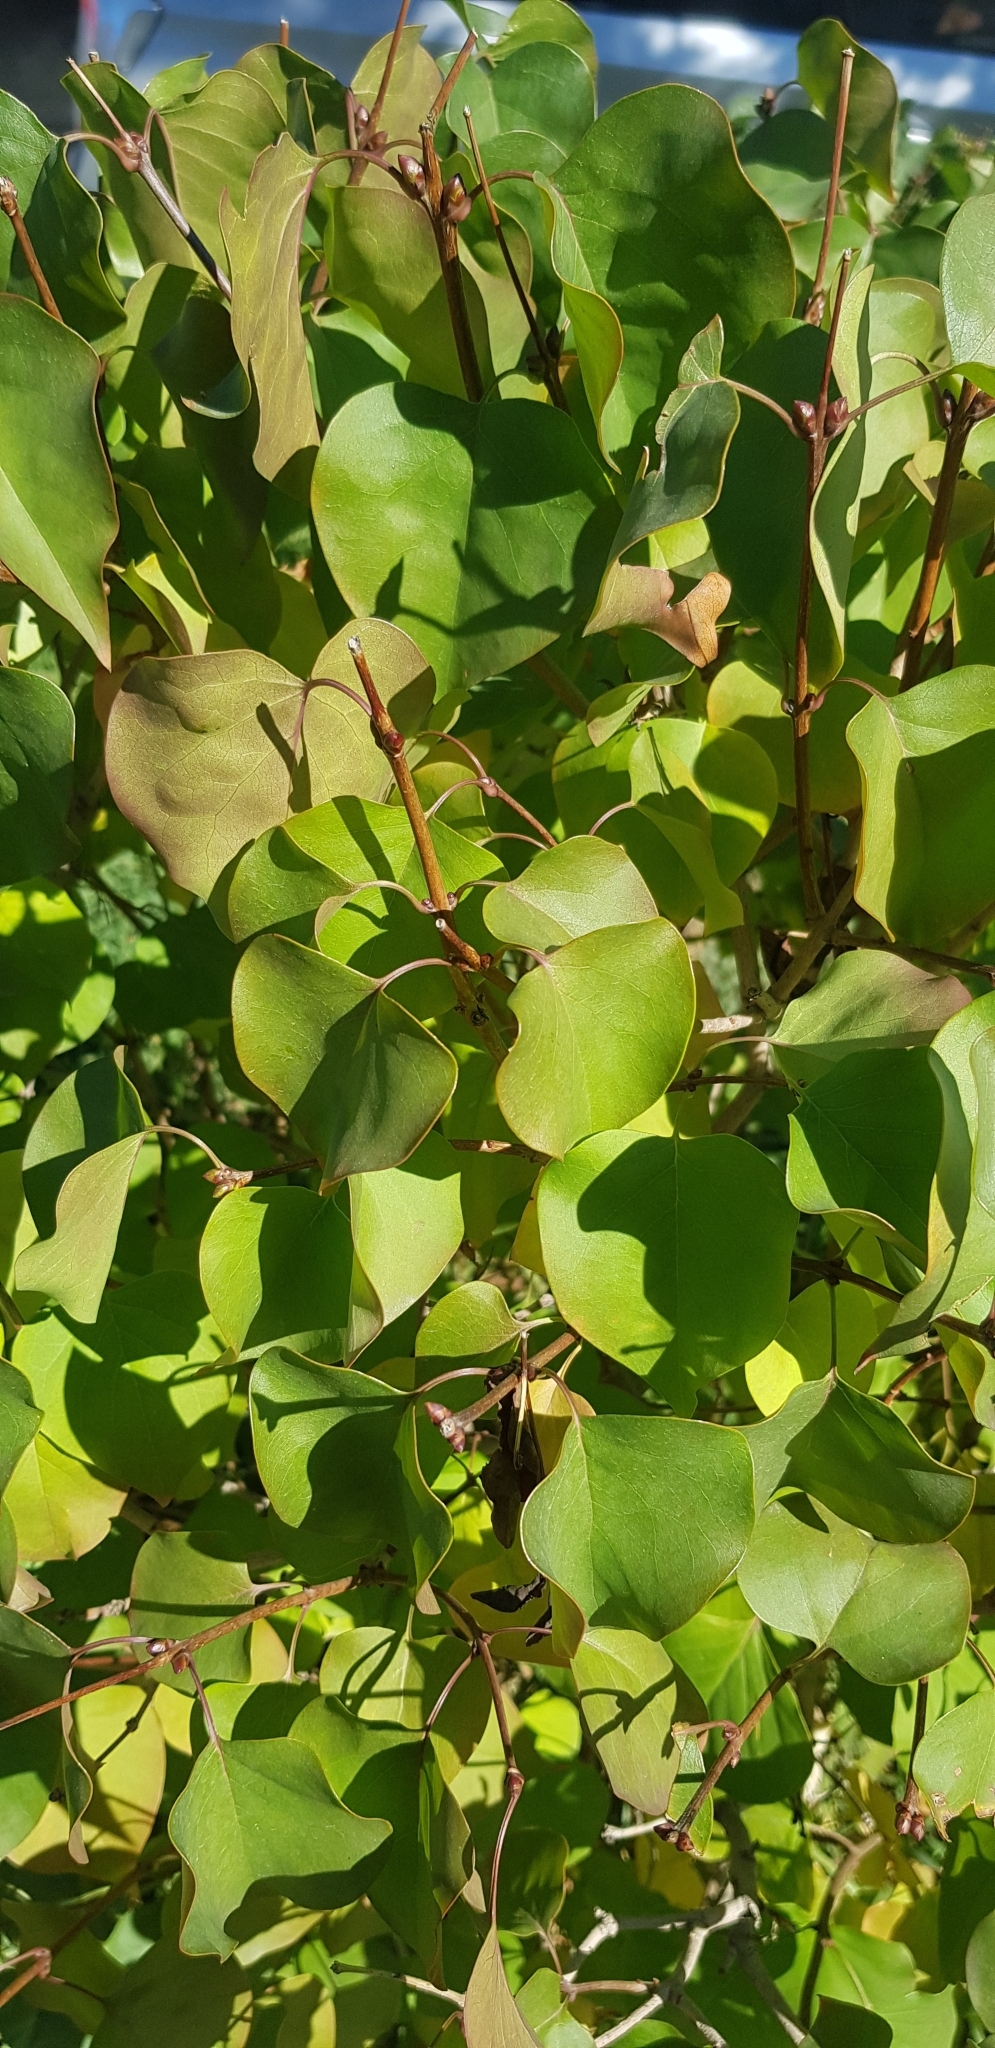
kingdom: Plantae
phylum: Tracheophyta
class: Magnoliopsida
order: Rosales
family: Rosaceae
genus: Prunus
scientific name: Prunus armeniaca
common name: Apricot
